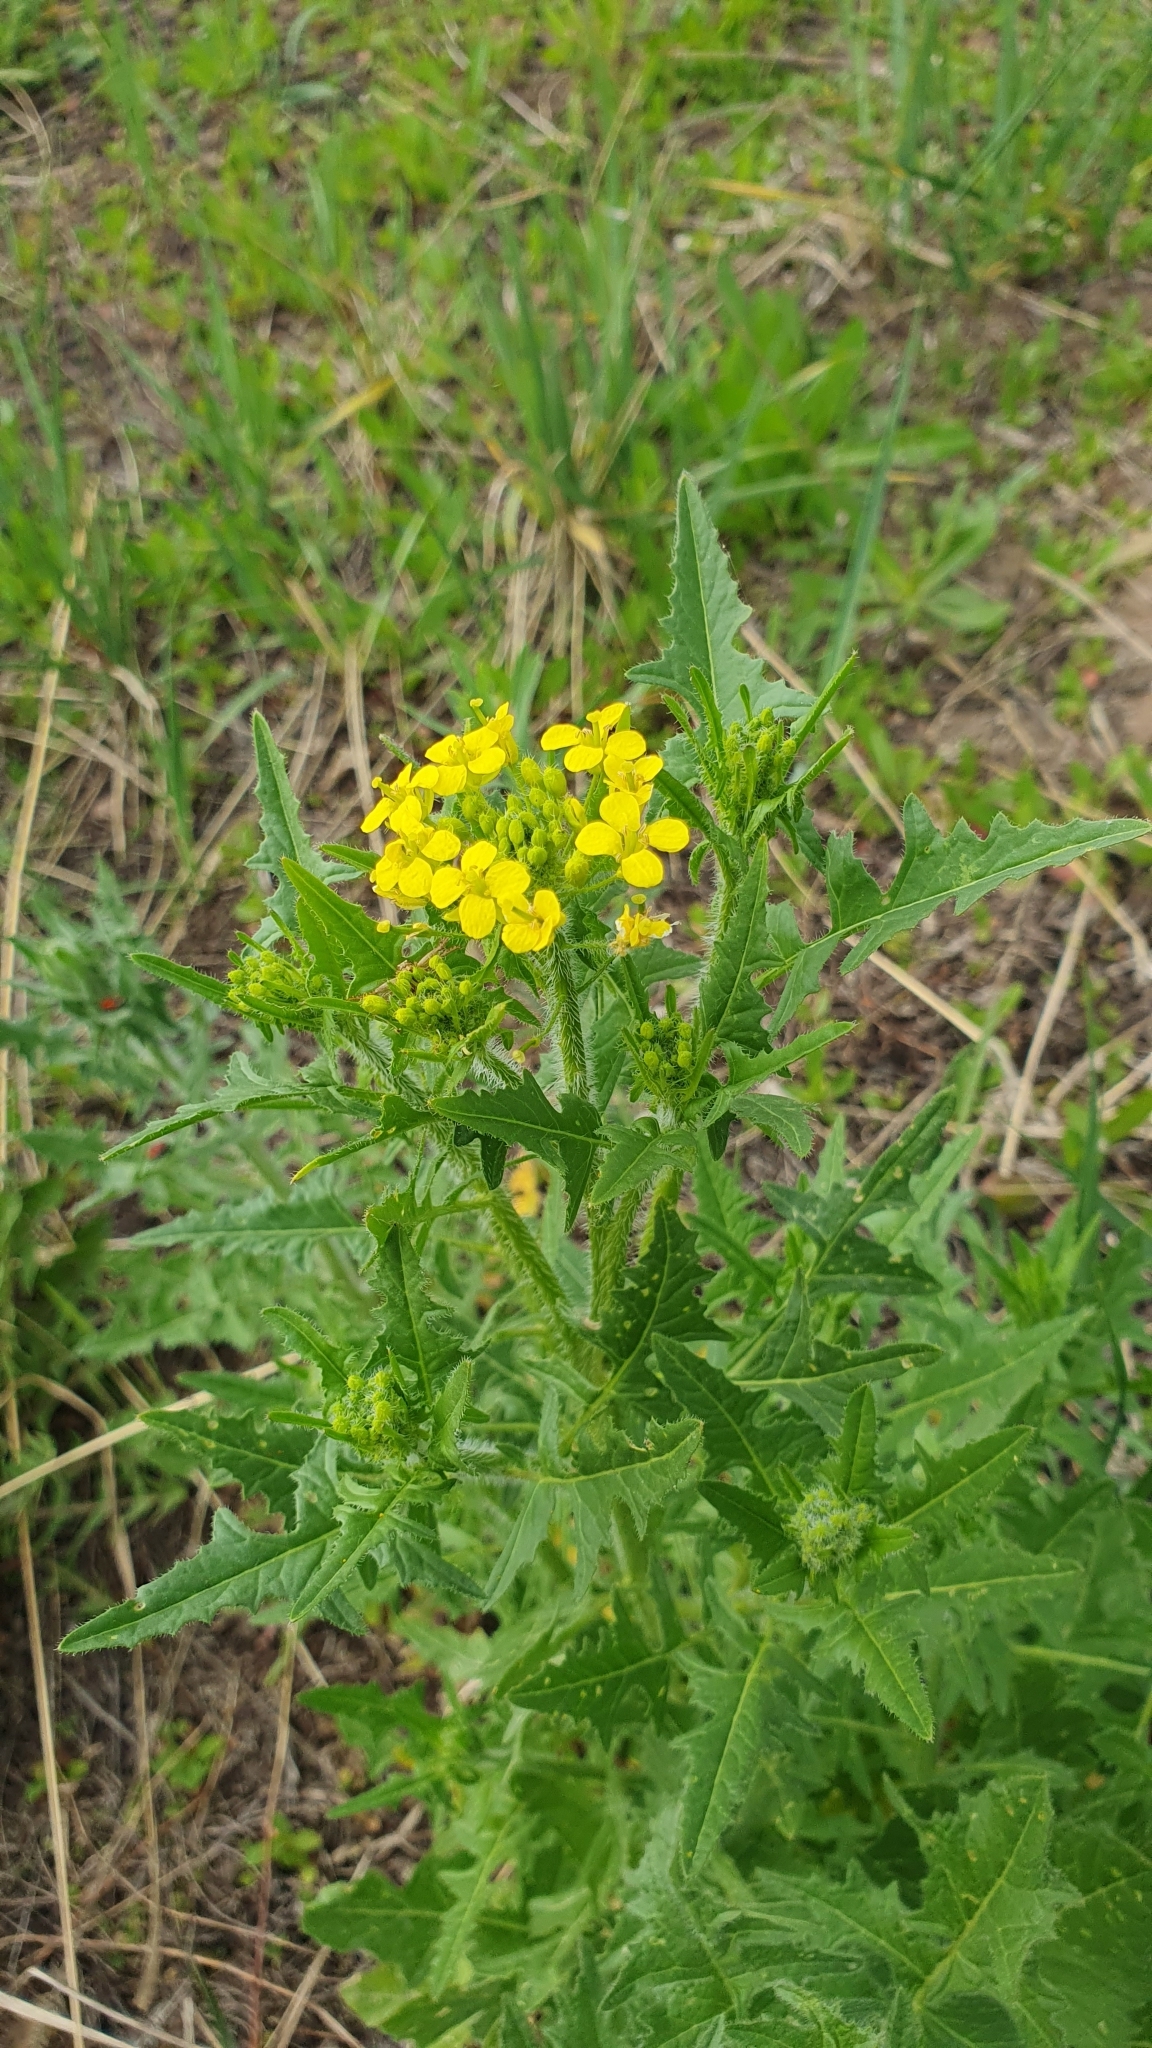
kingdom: Plantae
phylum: Tracheophyta
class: Magnoliopsida
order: Brassicales
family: Brassicaceae
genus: Sisymbrium
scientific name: Sisymbrium loeselii
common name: False london-rocket
